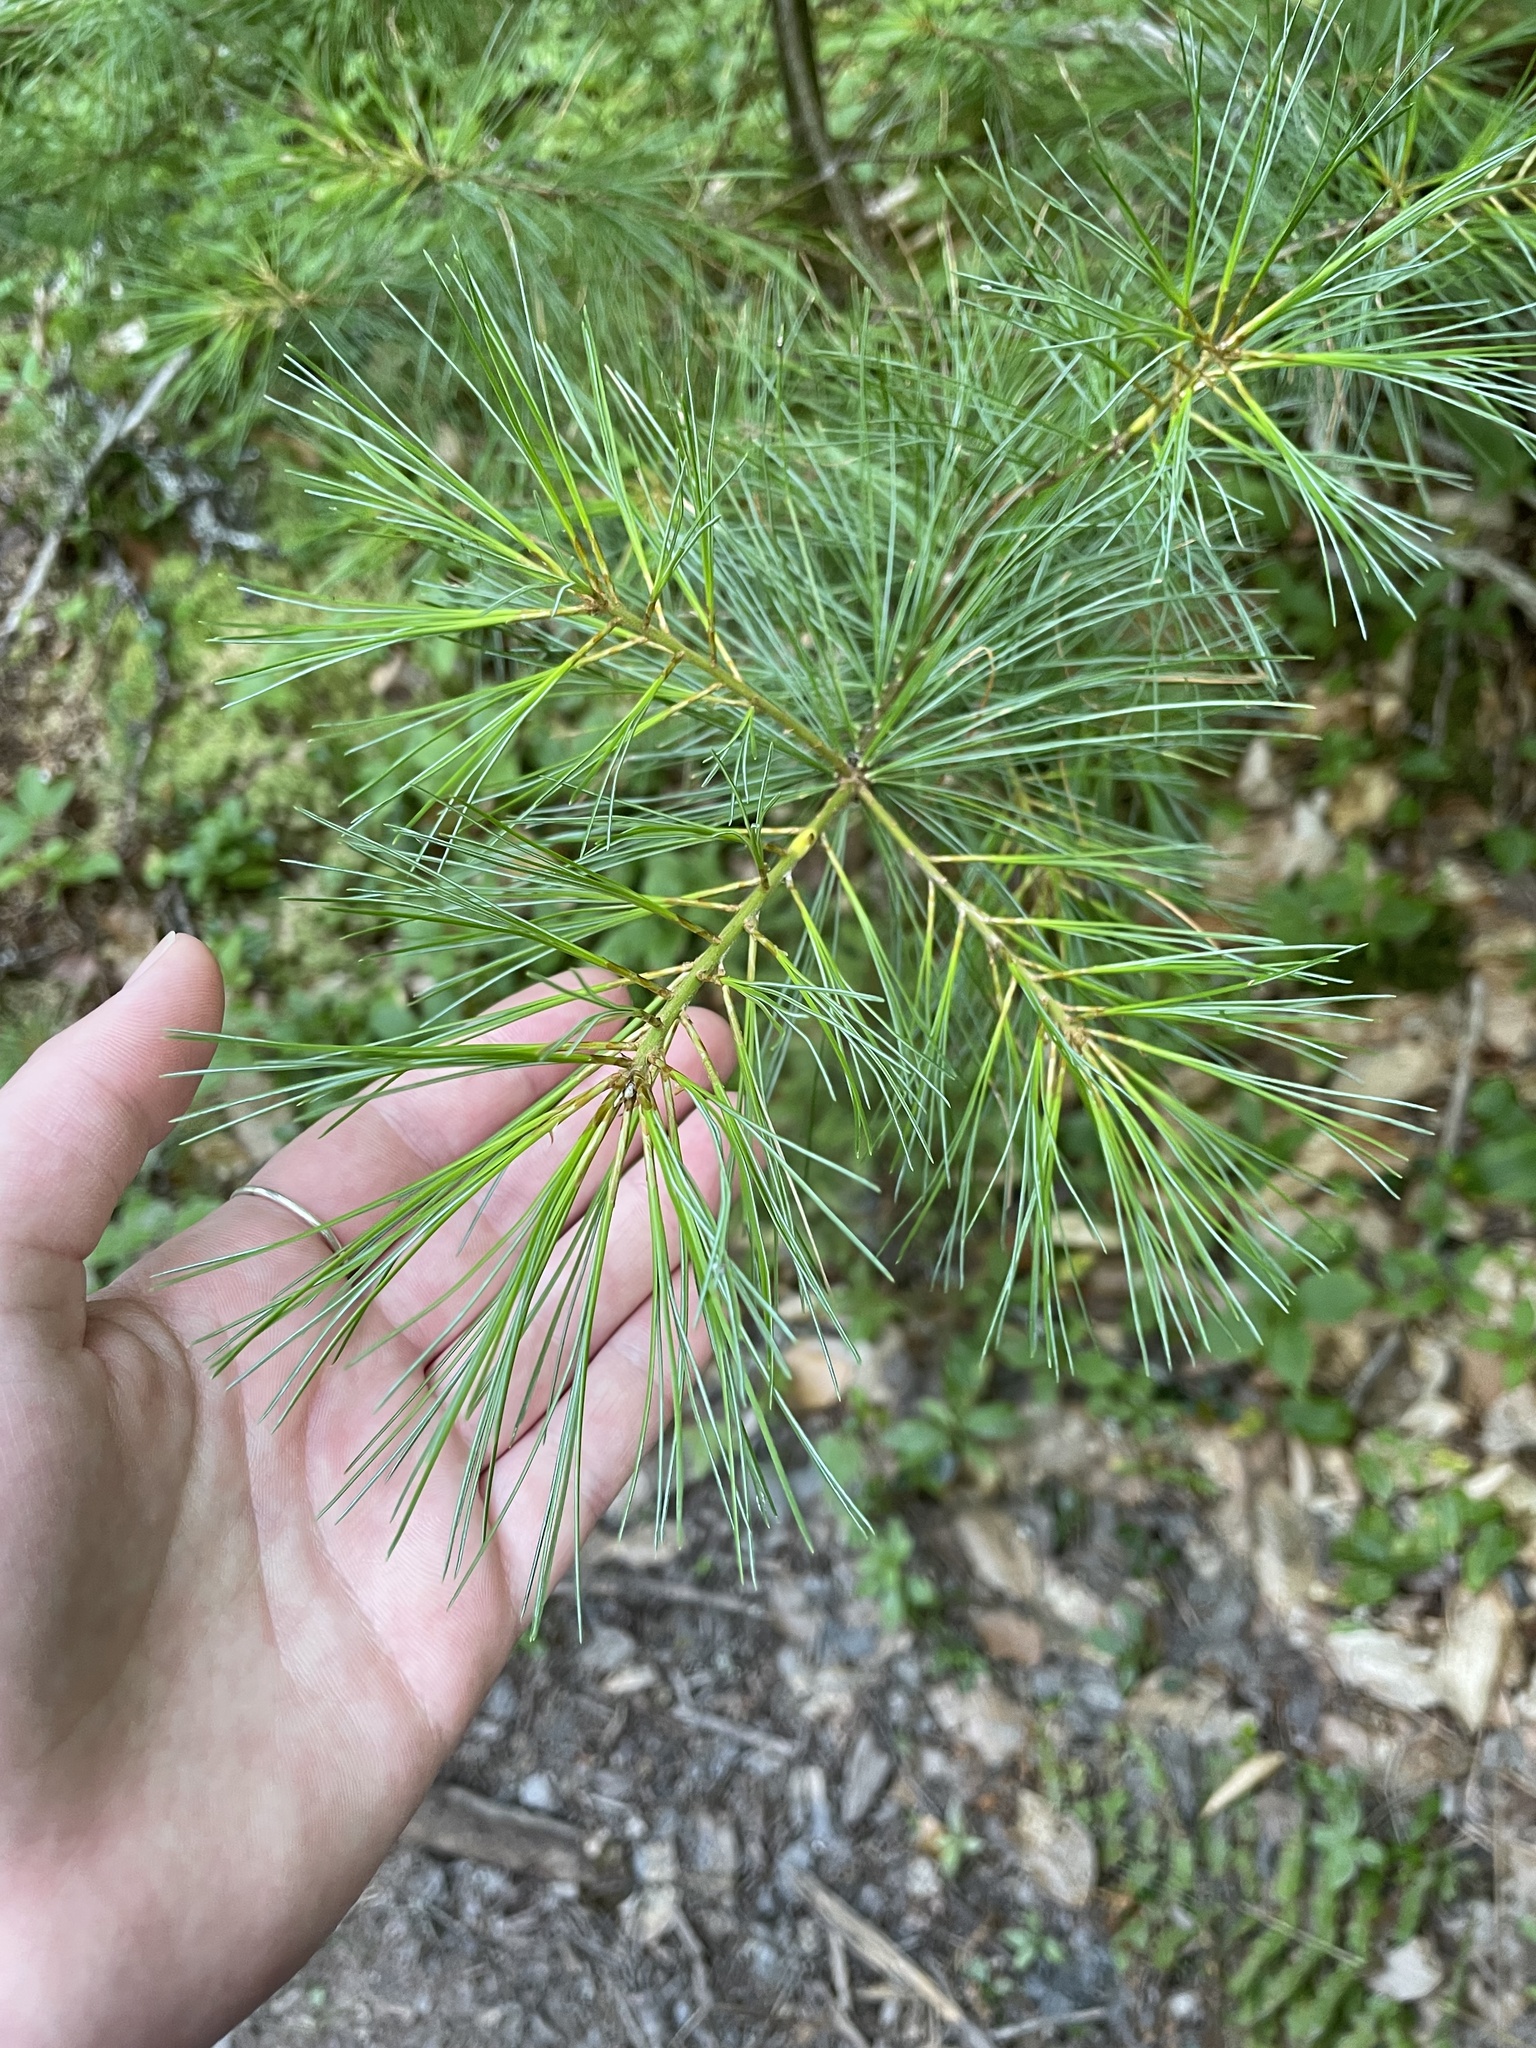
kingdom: Plantae
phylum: Tracheophyta
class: Pinopsida
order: Pinales
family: Pinaceae
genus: Pinus
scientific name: Pinus strobus
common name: Weymouth pine
